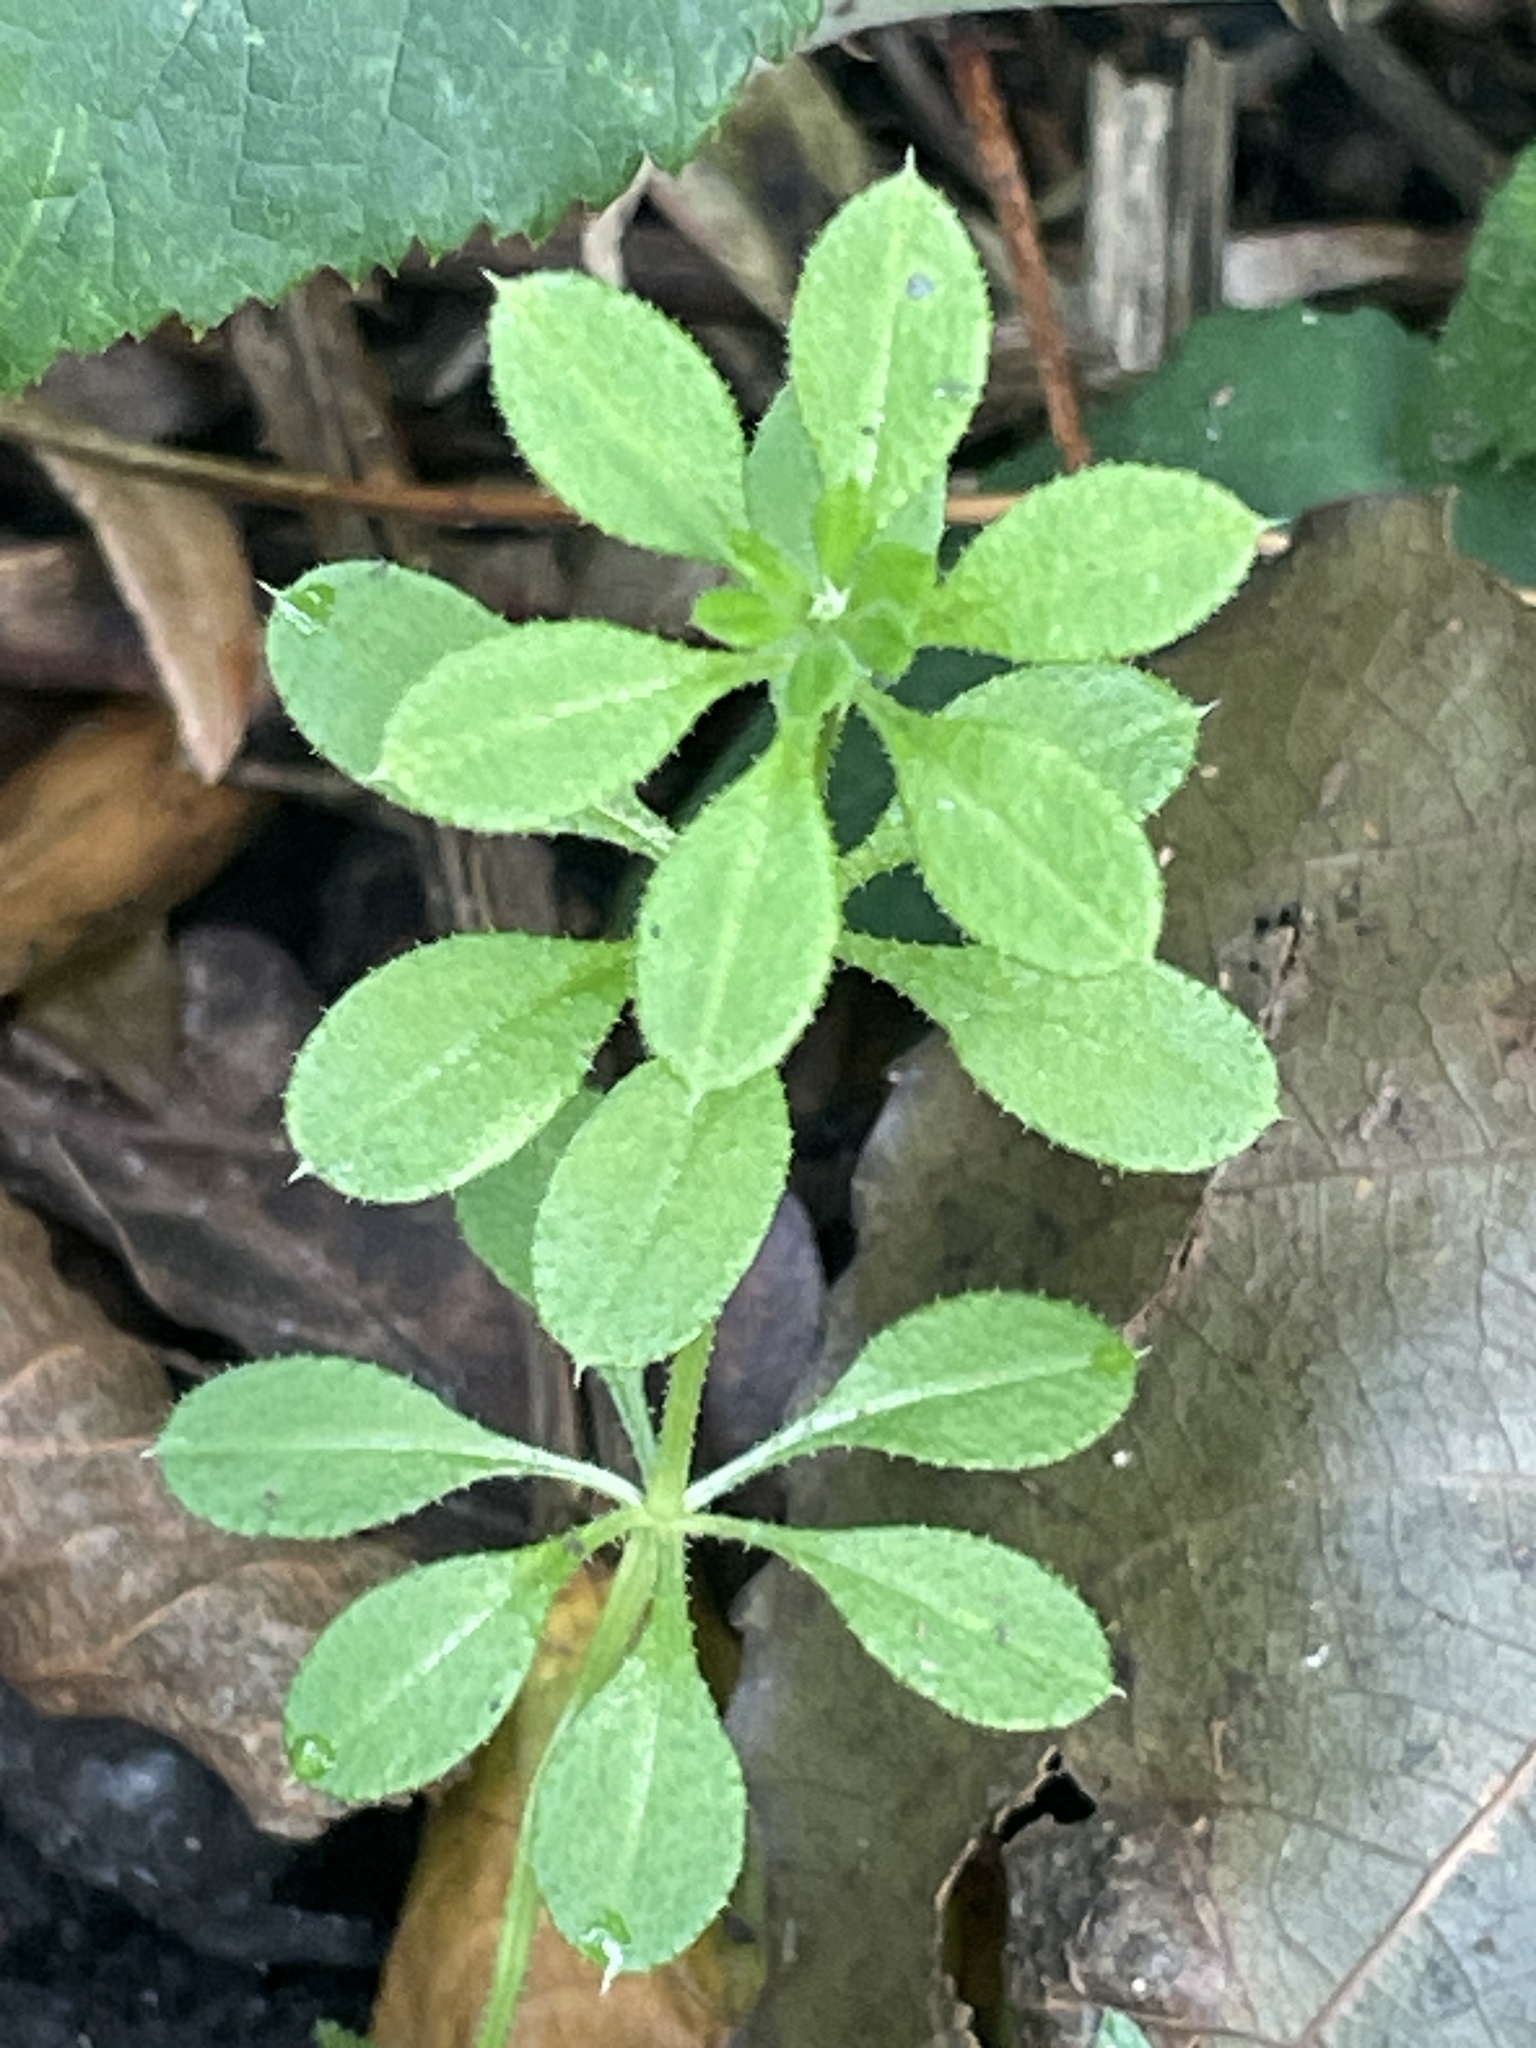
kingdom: Plantae
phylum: Tracheophyta
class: Magnoliopsida
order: Gentianales
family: Rubiaceae
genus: Galium
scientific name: Galium aparine
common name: Cleavers
